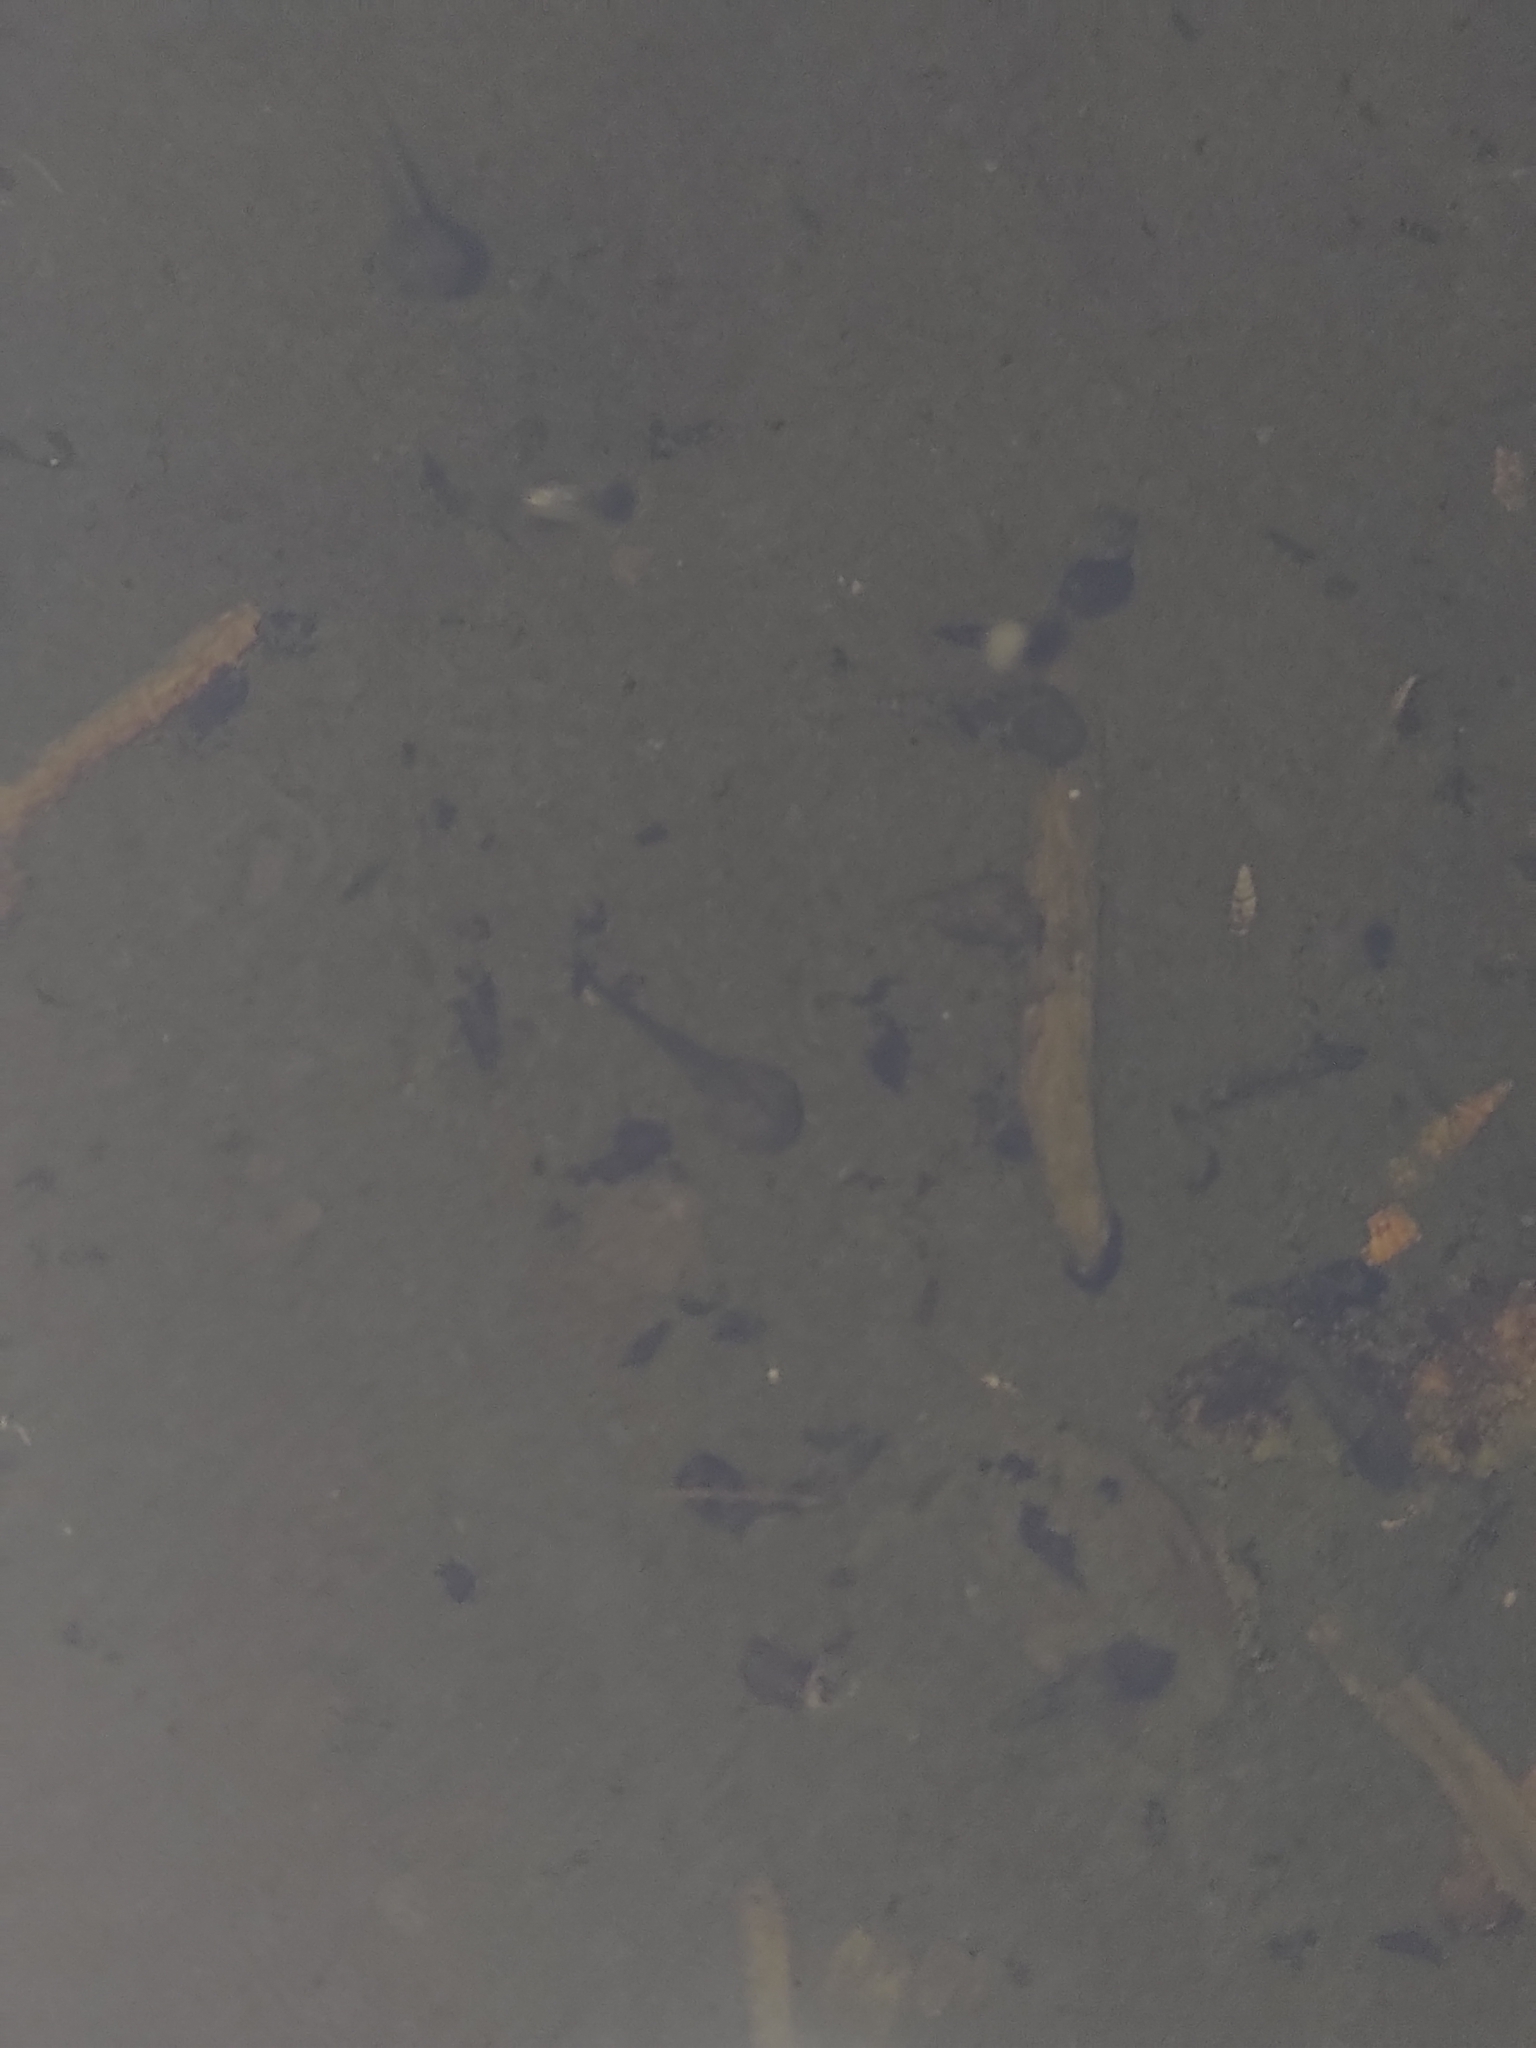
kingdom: Animalia
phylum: Chordata
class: Amphibia
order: Anura
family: Microhylidae
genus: Microhyla
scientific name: Microhyla fissipes
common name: Ornate narrow-mouthed frog
